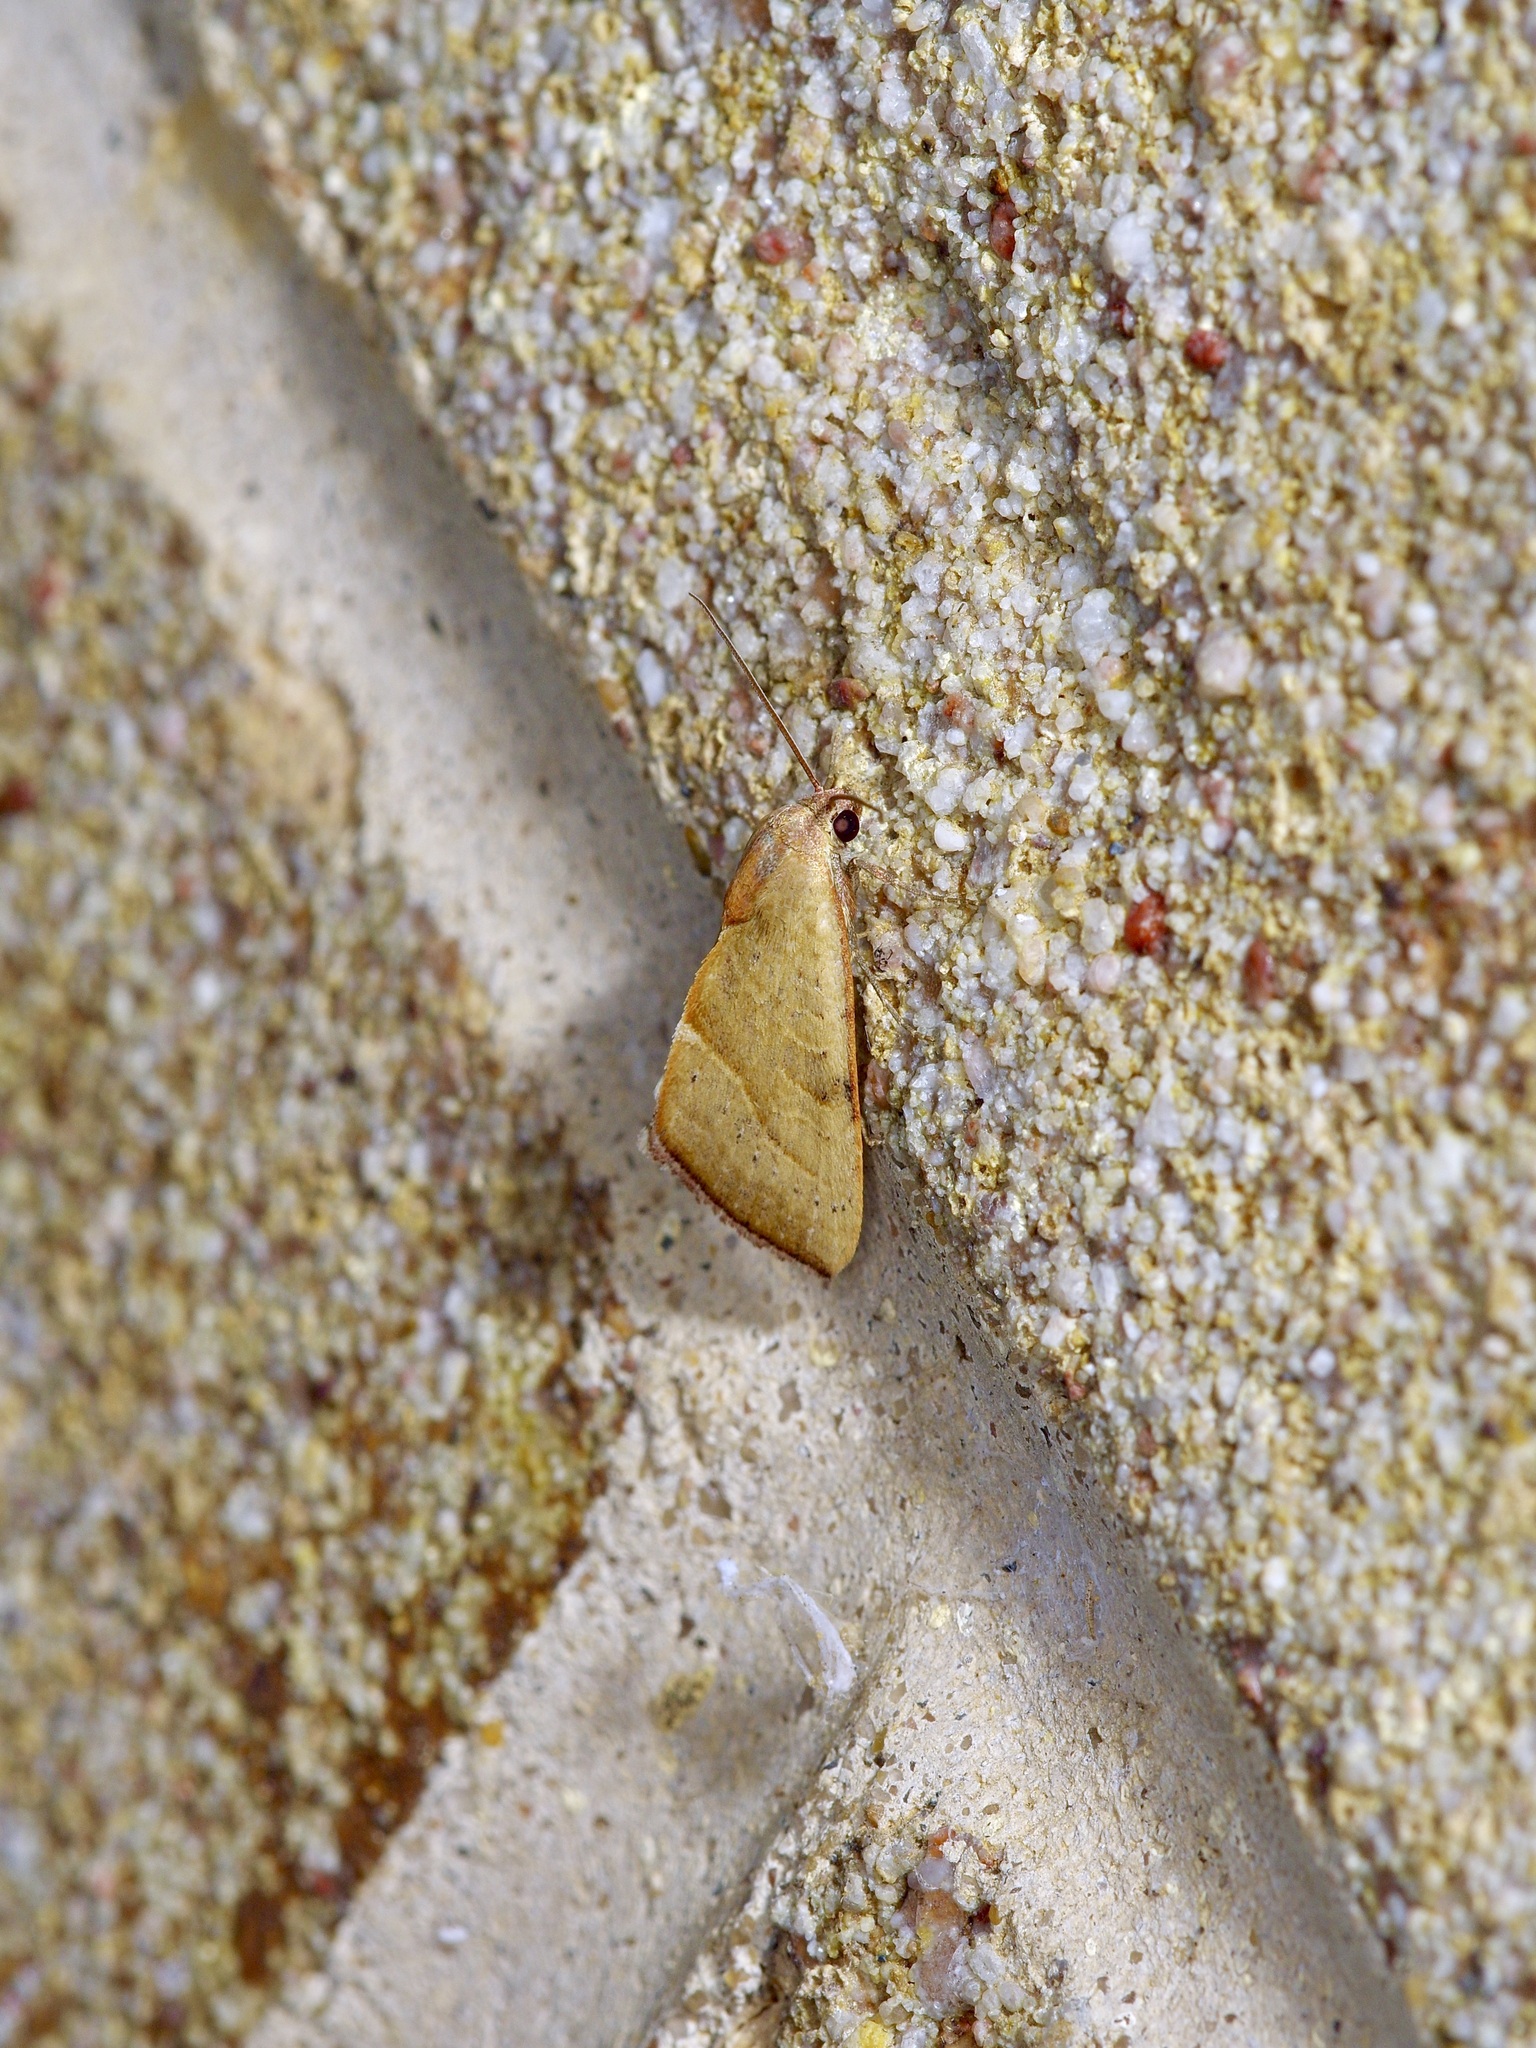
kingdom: Animalia
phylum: Arthropoda
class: Insecta
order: Lepidoptera
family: Noctuidae
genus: Galgula
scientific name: Galgula partita
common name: Wedgeling
